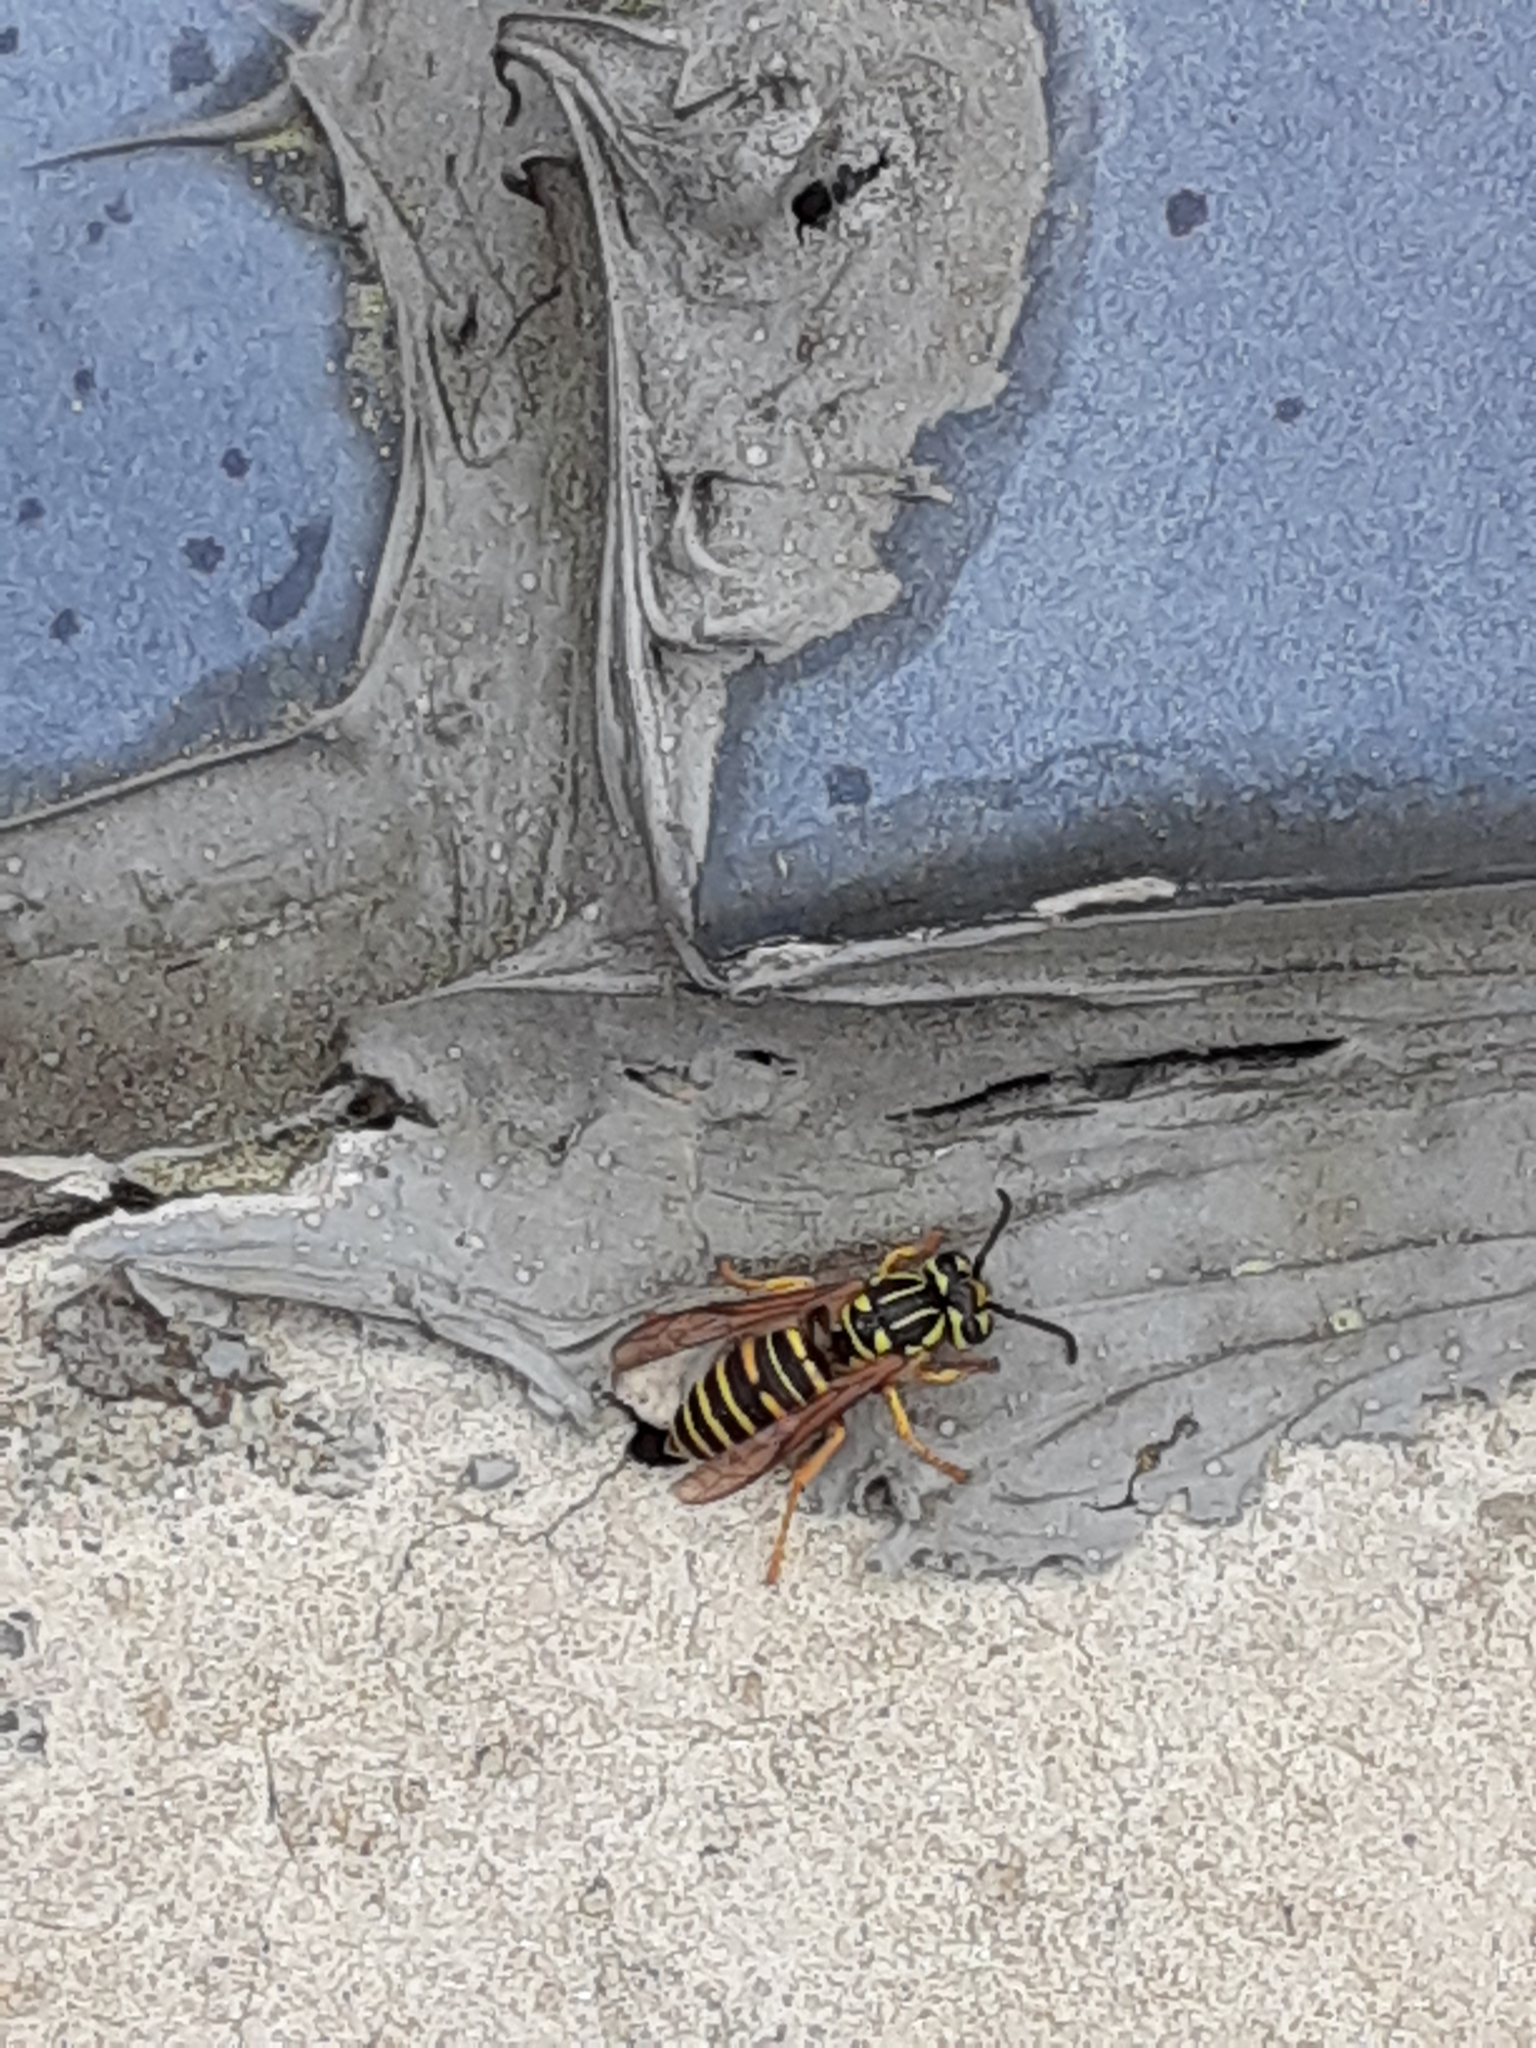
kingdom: Animalia
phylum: Arthropoda
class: Insecta
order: Hymenoptera
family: Vespidae
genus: Vespula
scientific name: Vespula squamosa
